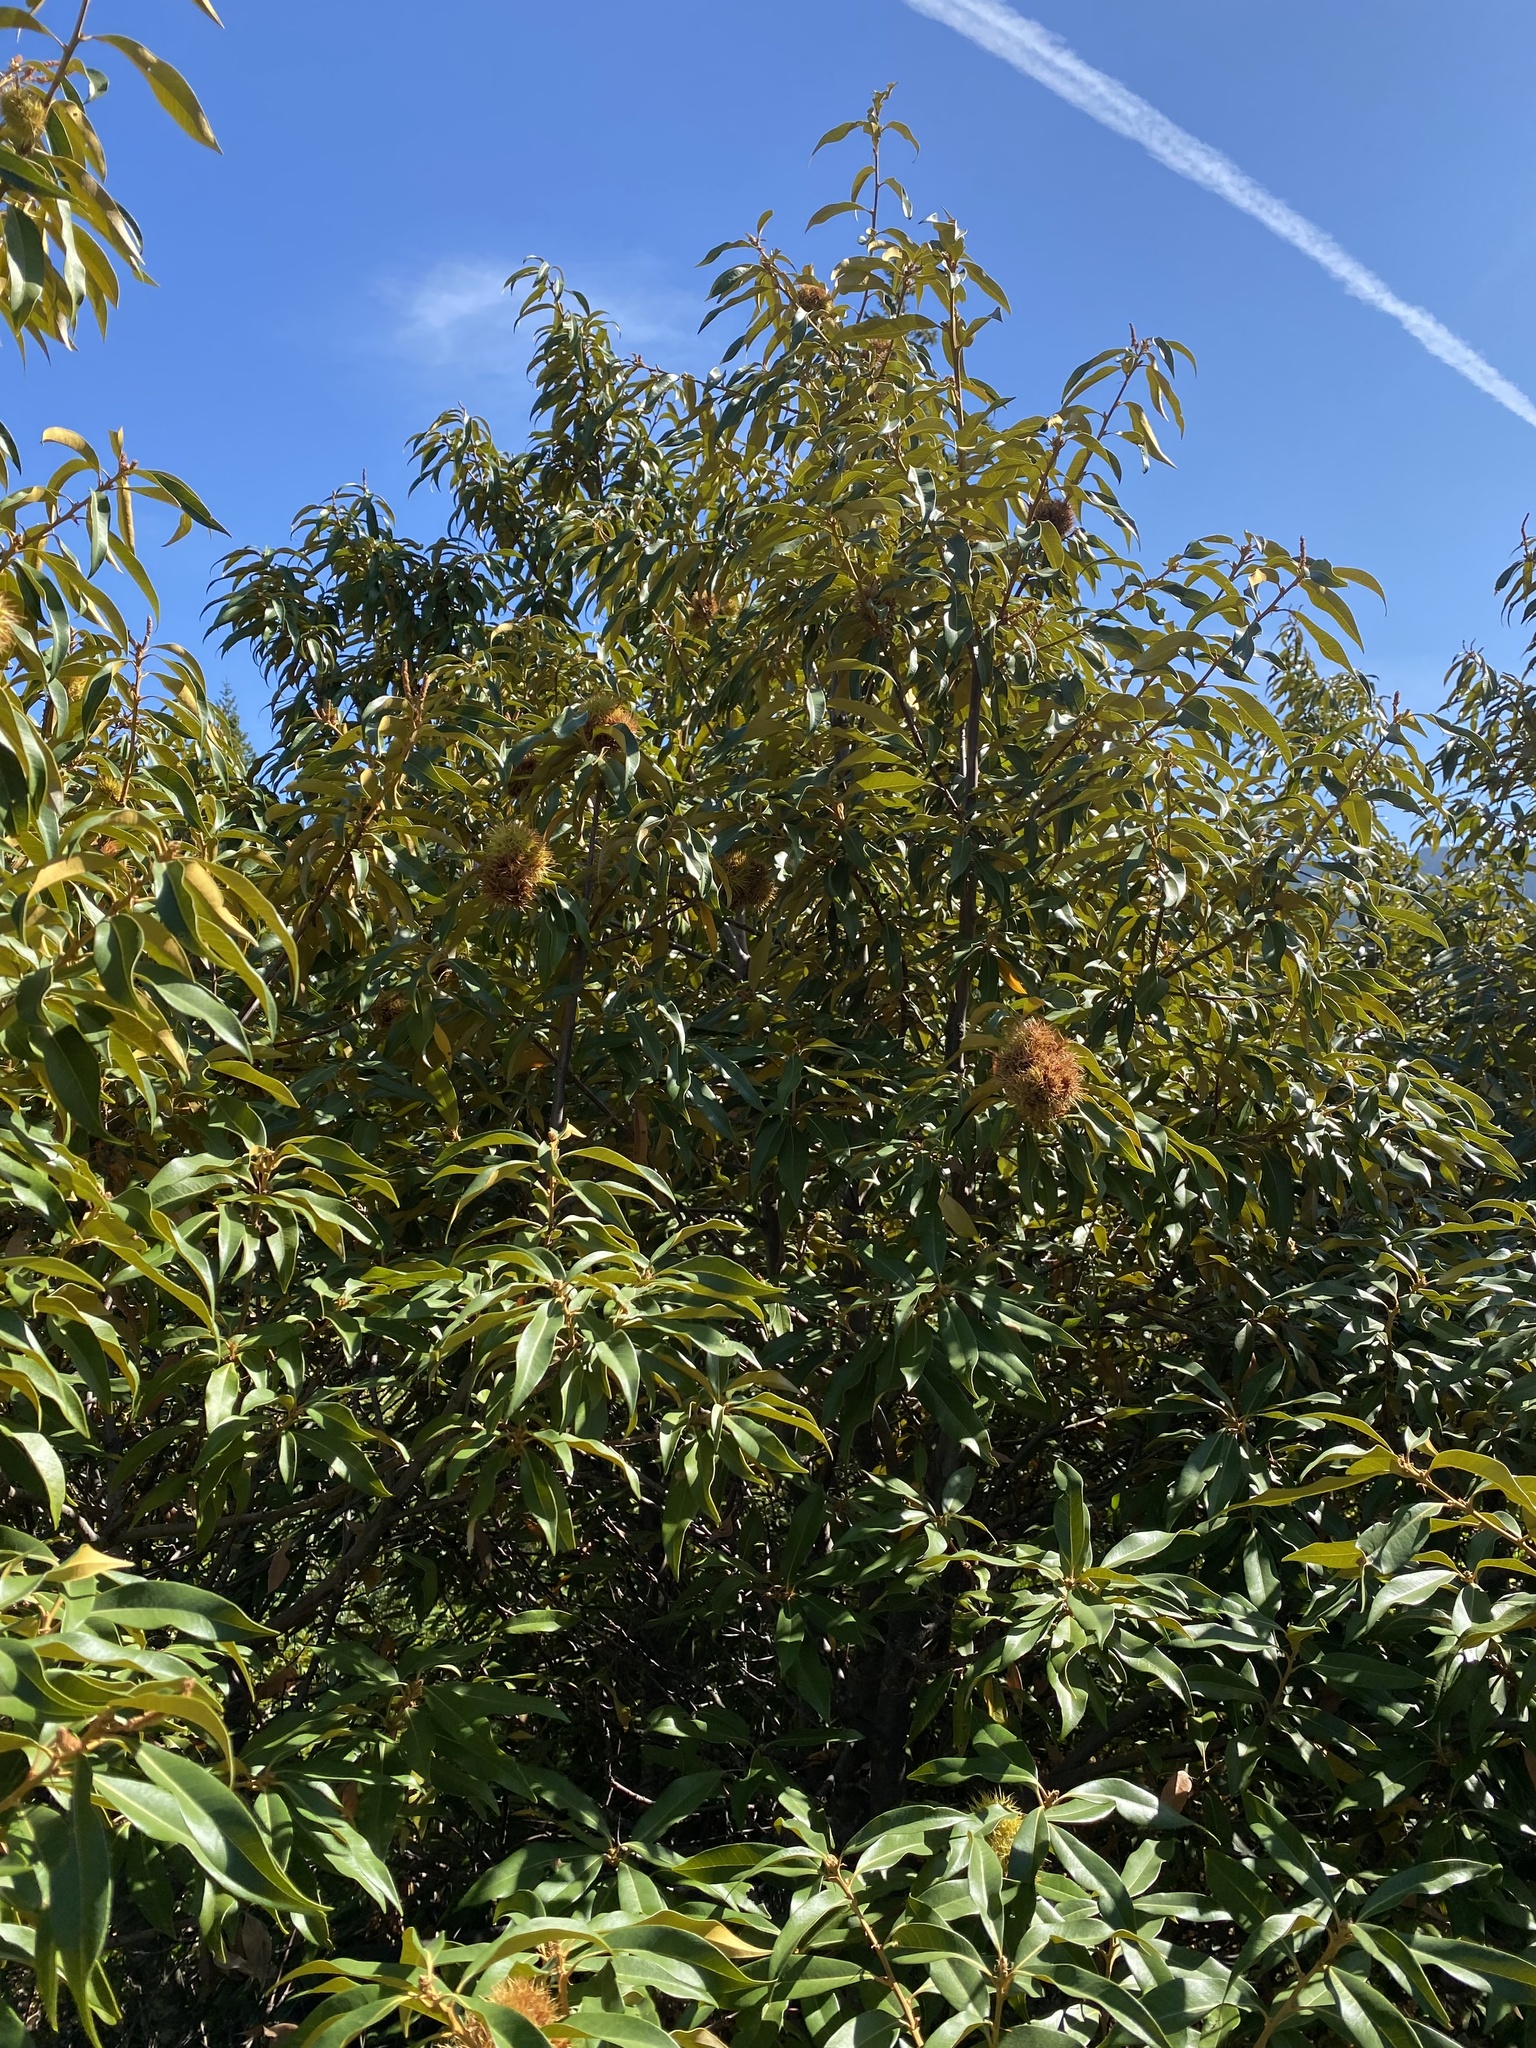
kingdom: Plantae
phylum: Tracheophyta
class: Magnoliopsida
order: Fagales
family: Fagaceae
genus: Chrysolepis
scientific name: Chrysolepis chrysophylla
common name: Giant chinquapin
